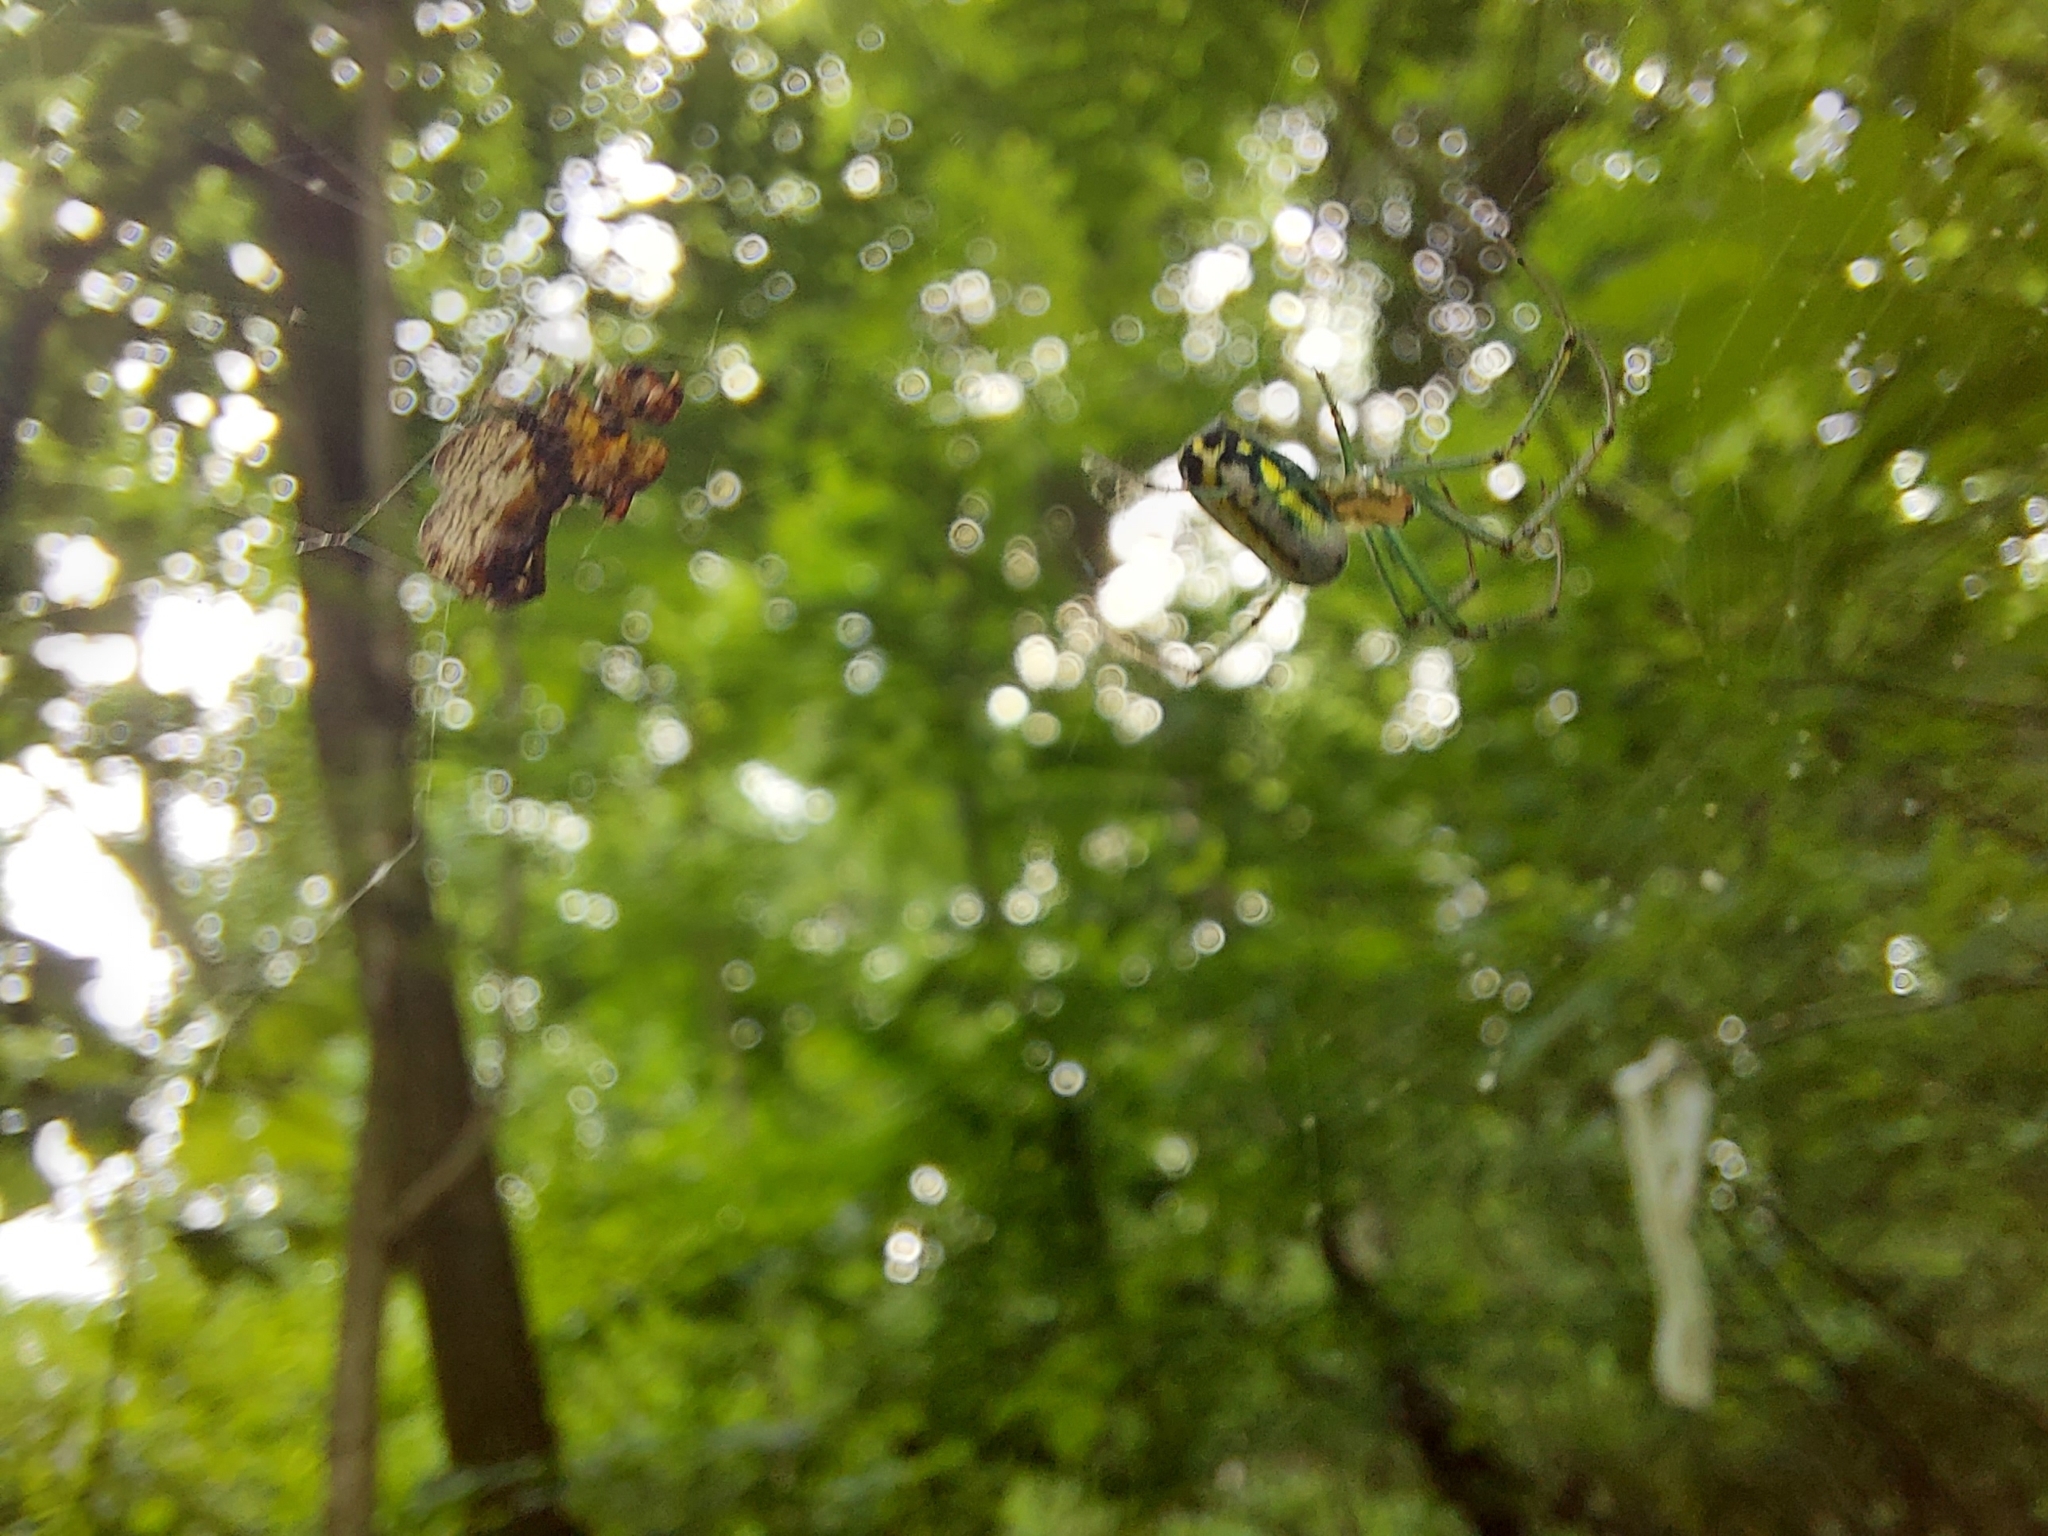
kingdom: Animalia
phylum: Arthropoda
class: Arachnida
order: Araneae
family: Tetragnathidae
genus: Leucauge
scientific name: Leucauge venusta
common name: Longjawed orb weavers
